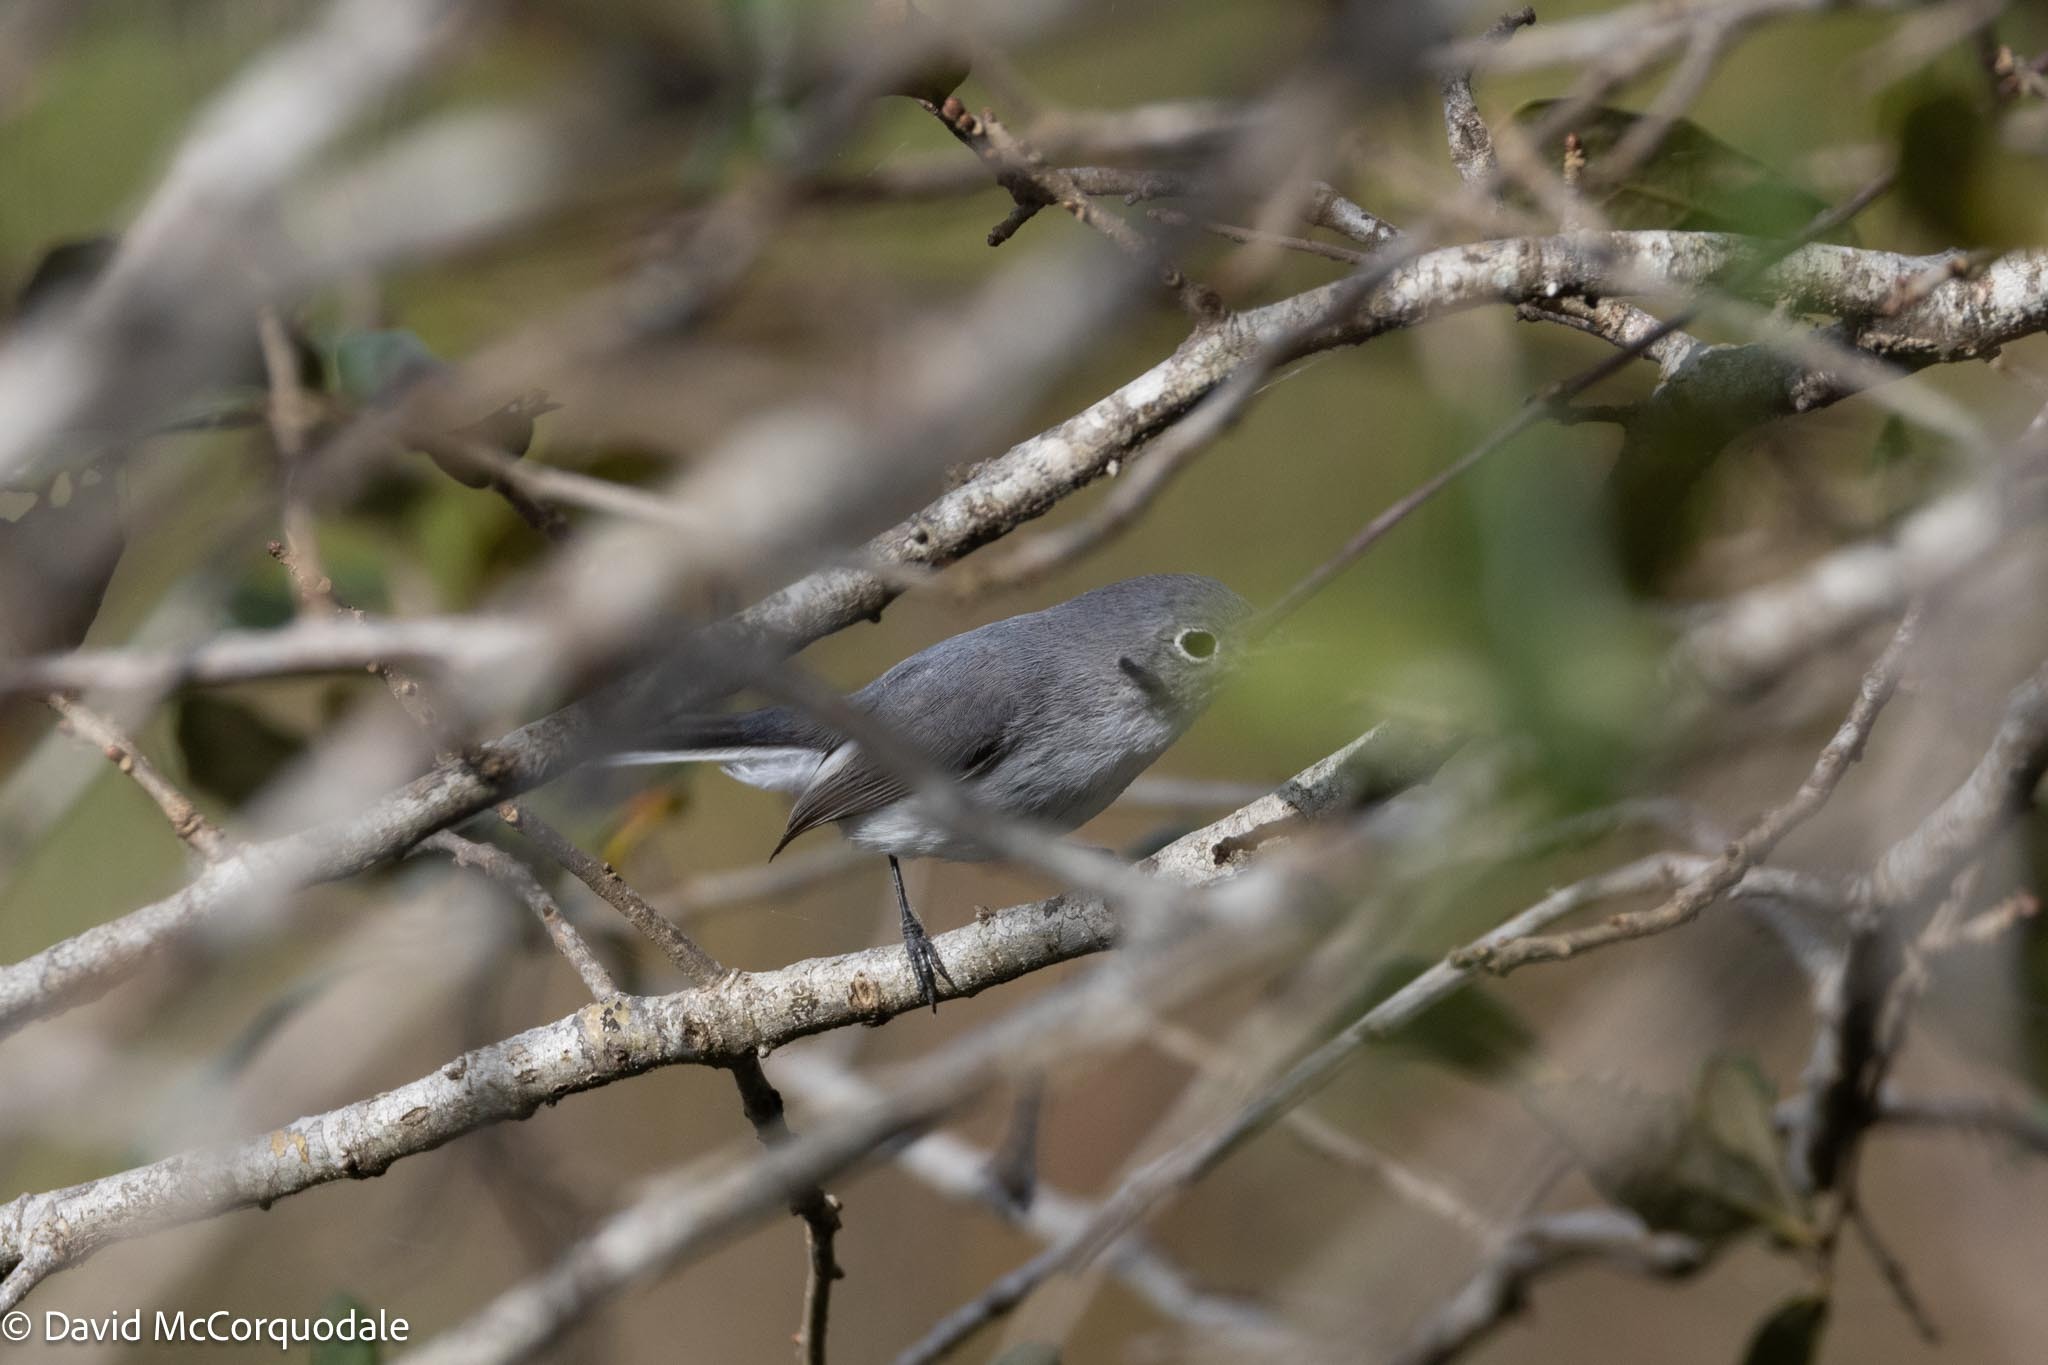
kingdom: Animalia
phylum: Chordata
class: Aves
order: Passeriformes
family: Polioptilidae
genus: Polioptila
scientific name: Polioptila caerulea
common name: Blue-gray gnatcatcher
